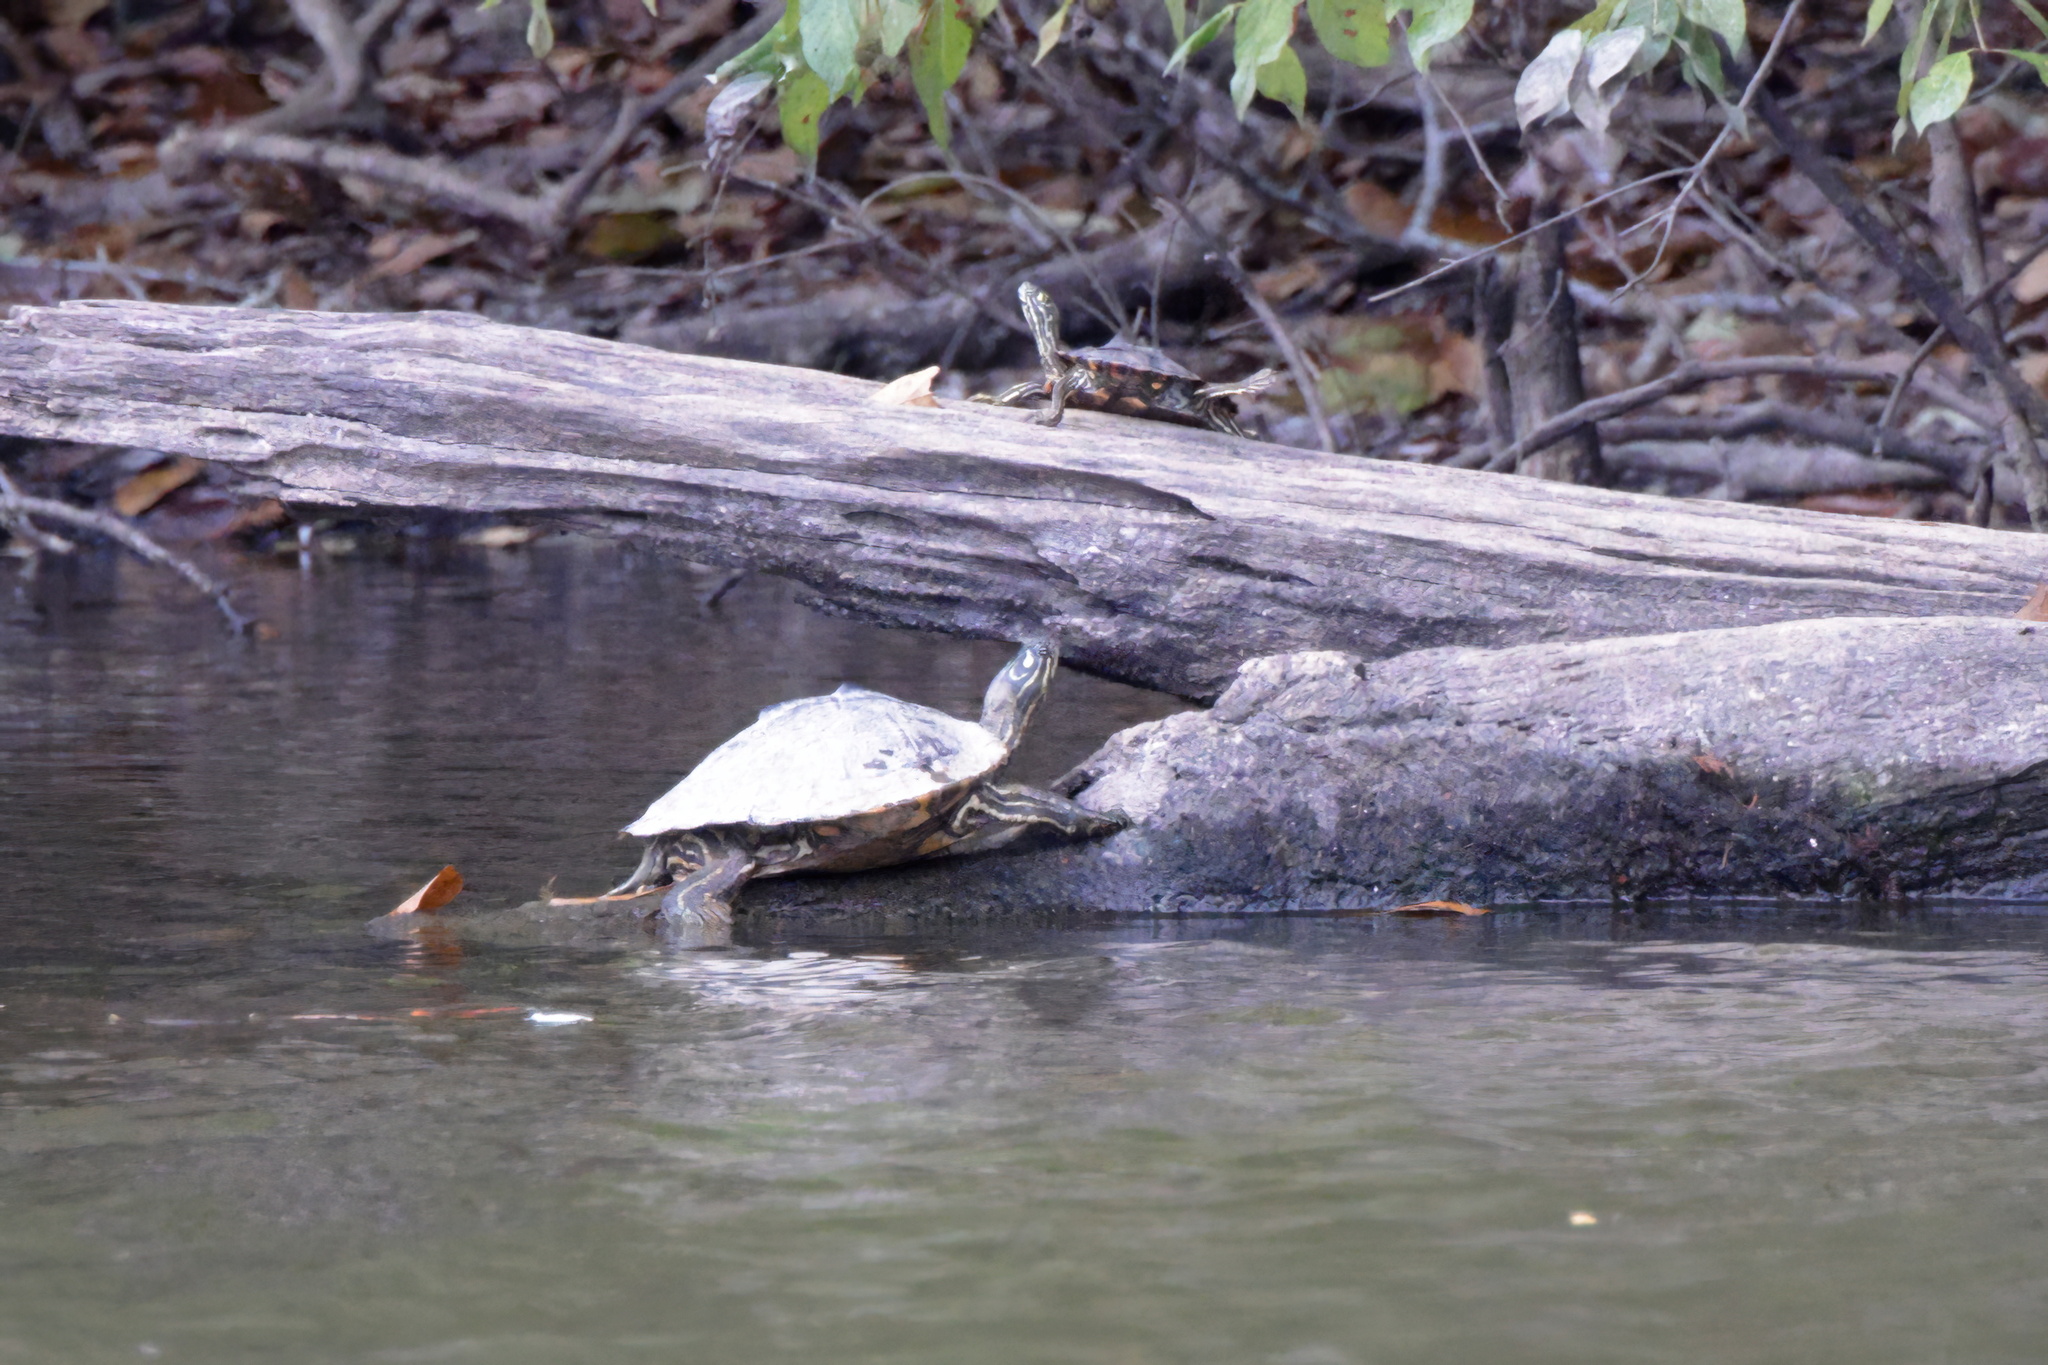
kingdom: Animalia
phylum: Chordata
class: Testudines
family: Emydidae
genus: Graptemys
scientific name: Graptemys oculifera
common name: Ringed map turtle
